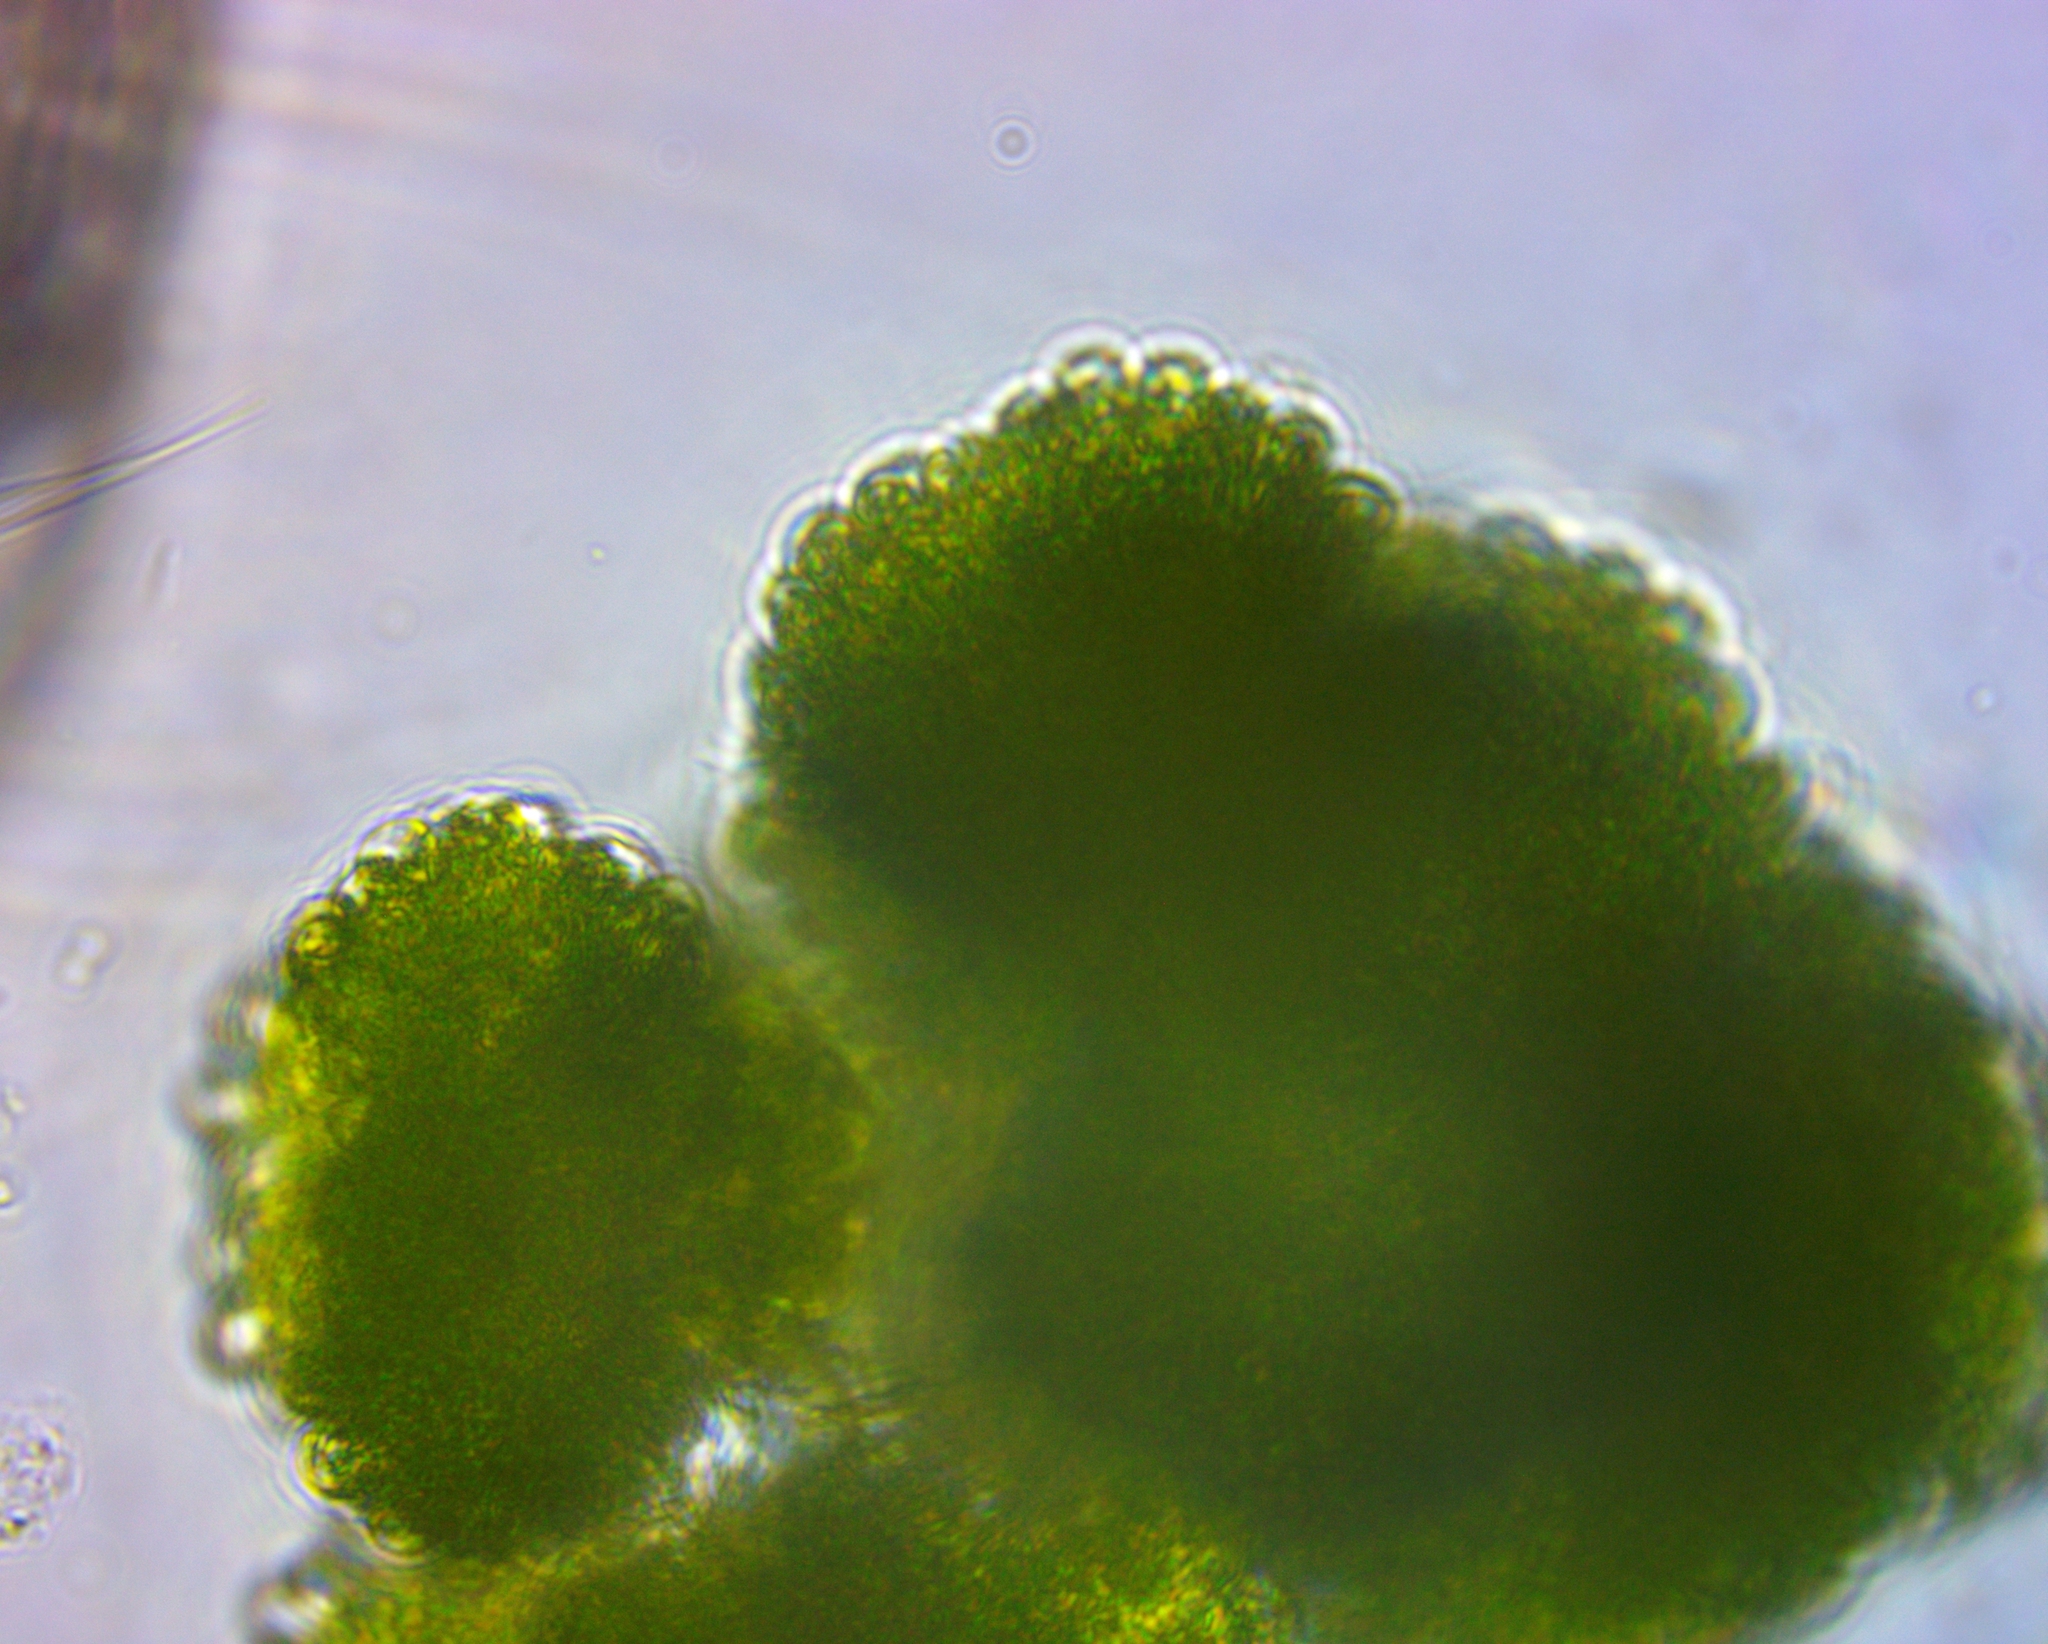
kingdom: Plantae
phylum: Chlorophyta
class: Trebouxiophyceae
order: Trebouxiales
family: Botryococcaceae
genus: Botryococcus
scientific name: Botryococcus protuberans
